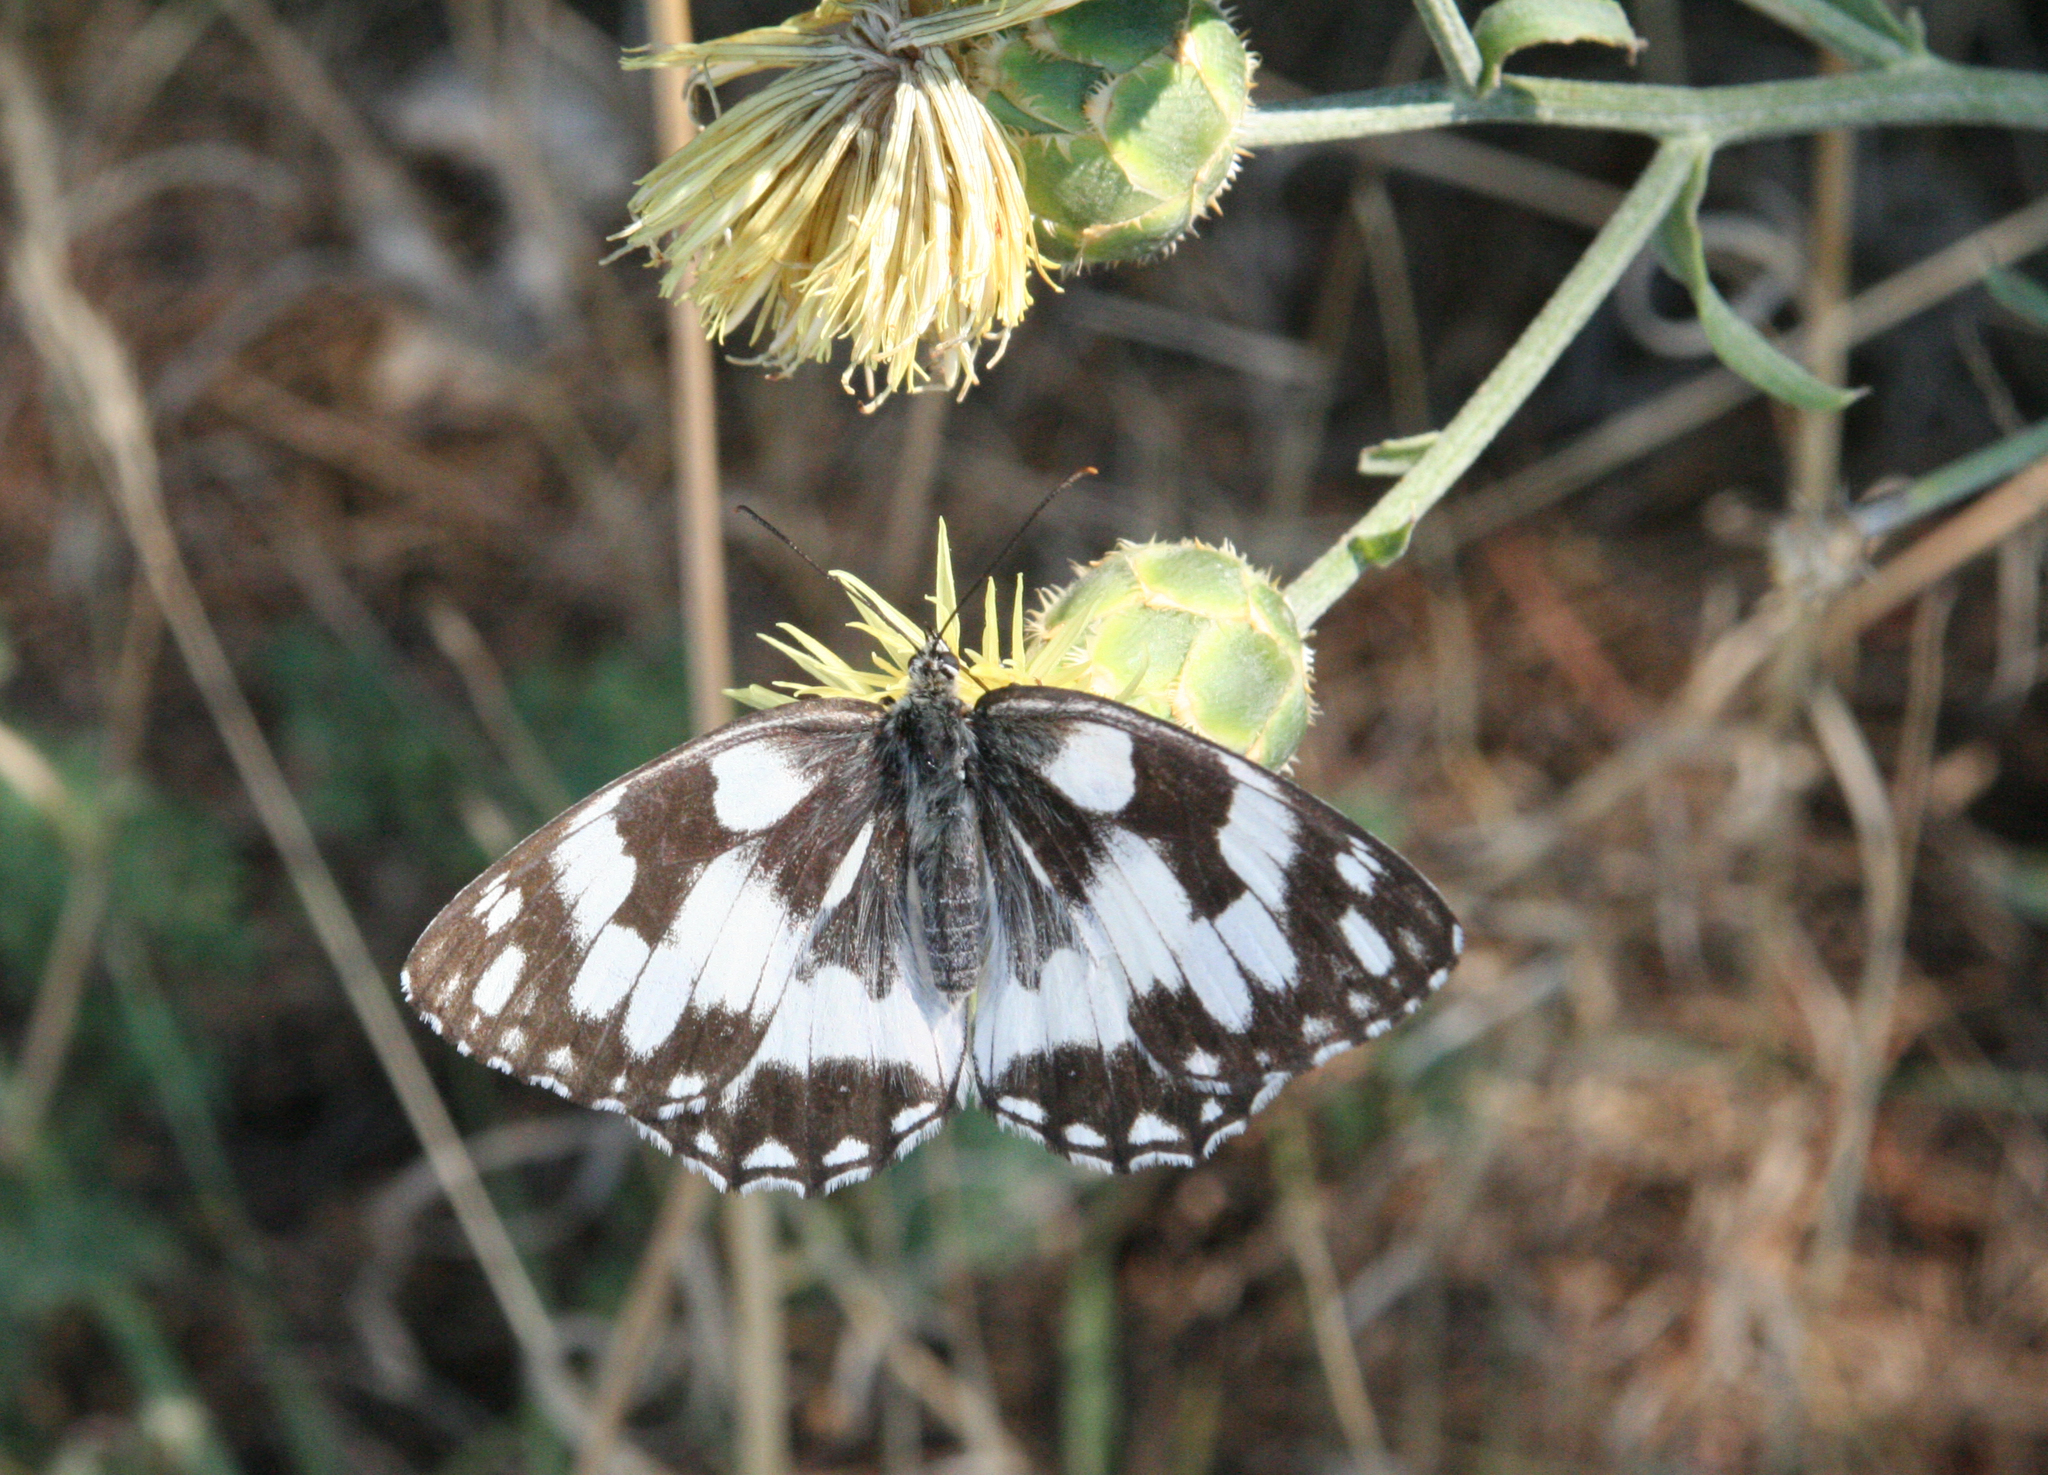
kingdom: Plantae
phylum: Tracheophyta
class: Magnoliopsida
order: Asterales
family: Asteraceae
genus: Centaurea
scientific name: Centaurea salonitana
